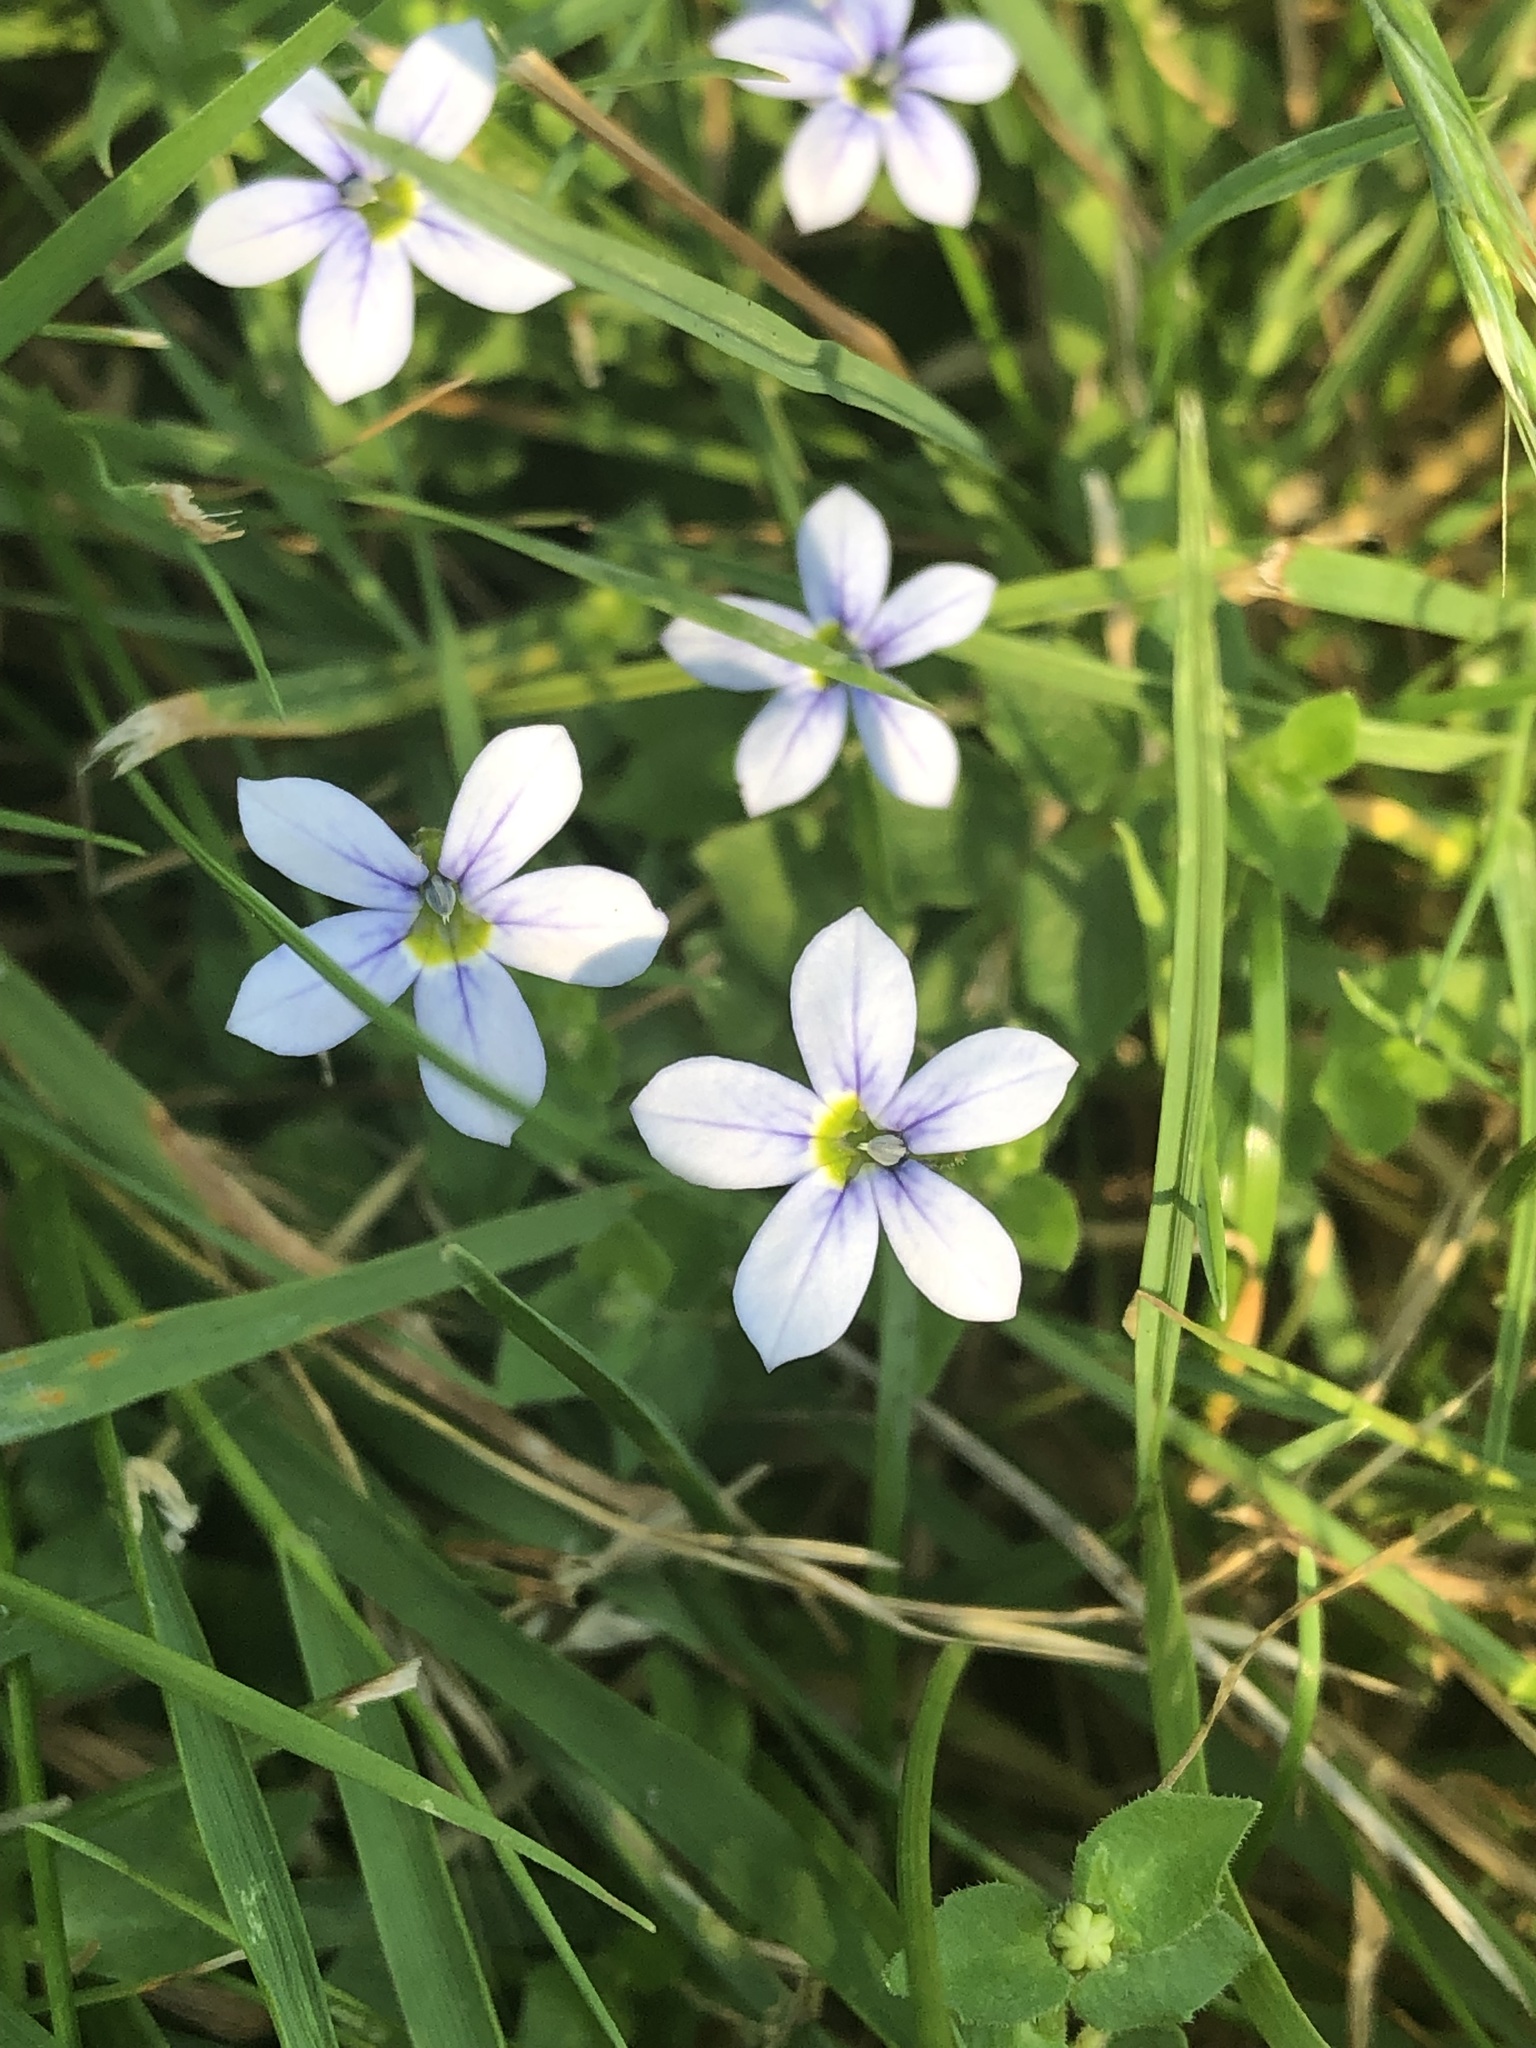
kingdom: Plantae
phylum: Tracheophyta
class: Magnoliopsida
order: Asterales
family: Campanulaceae
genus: Lobelia
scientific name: Lobelia pedunculata
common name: Matted pratia
